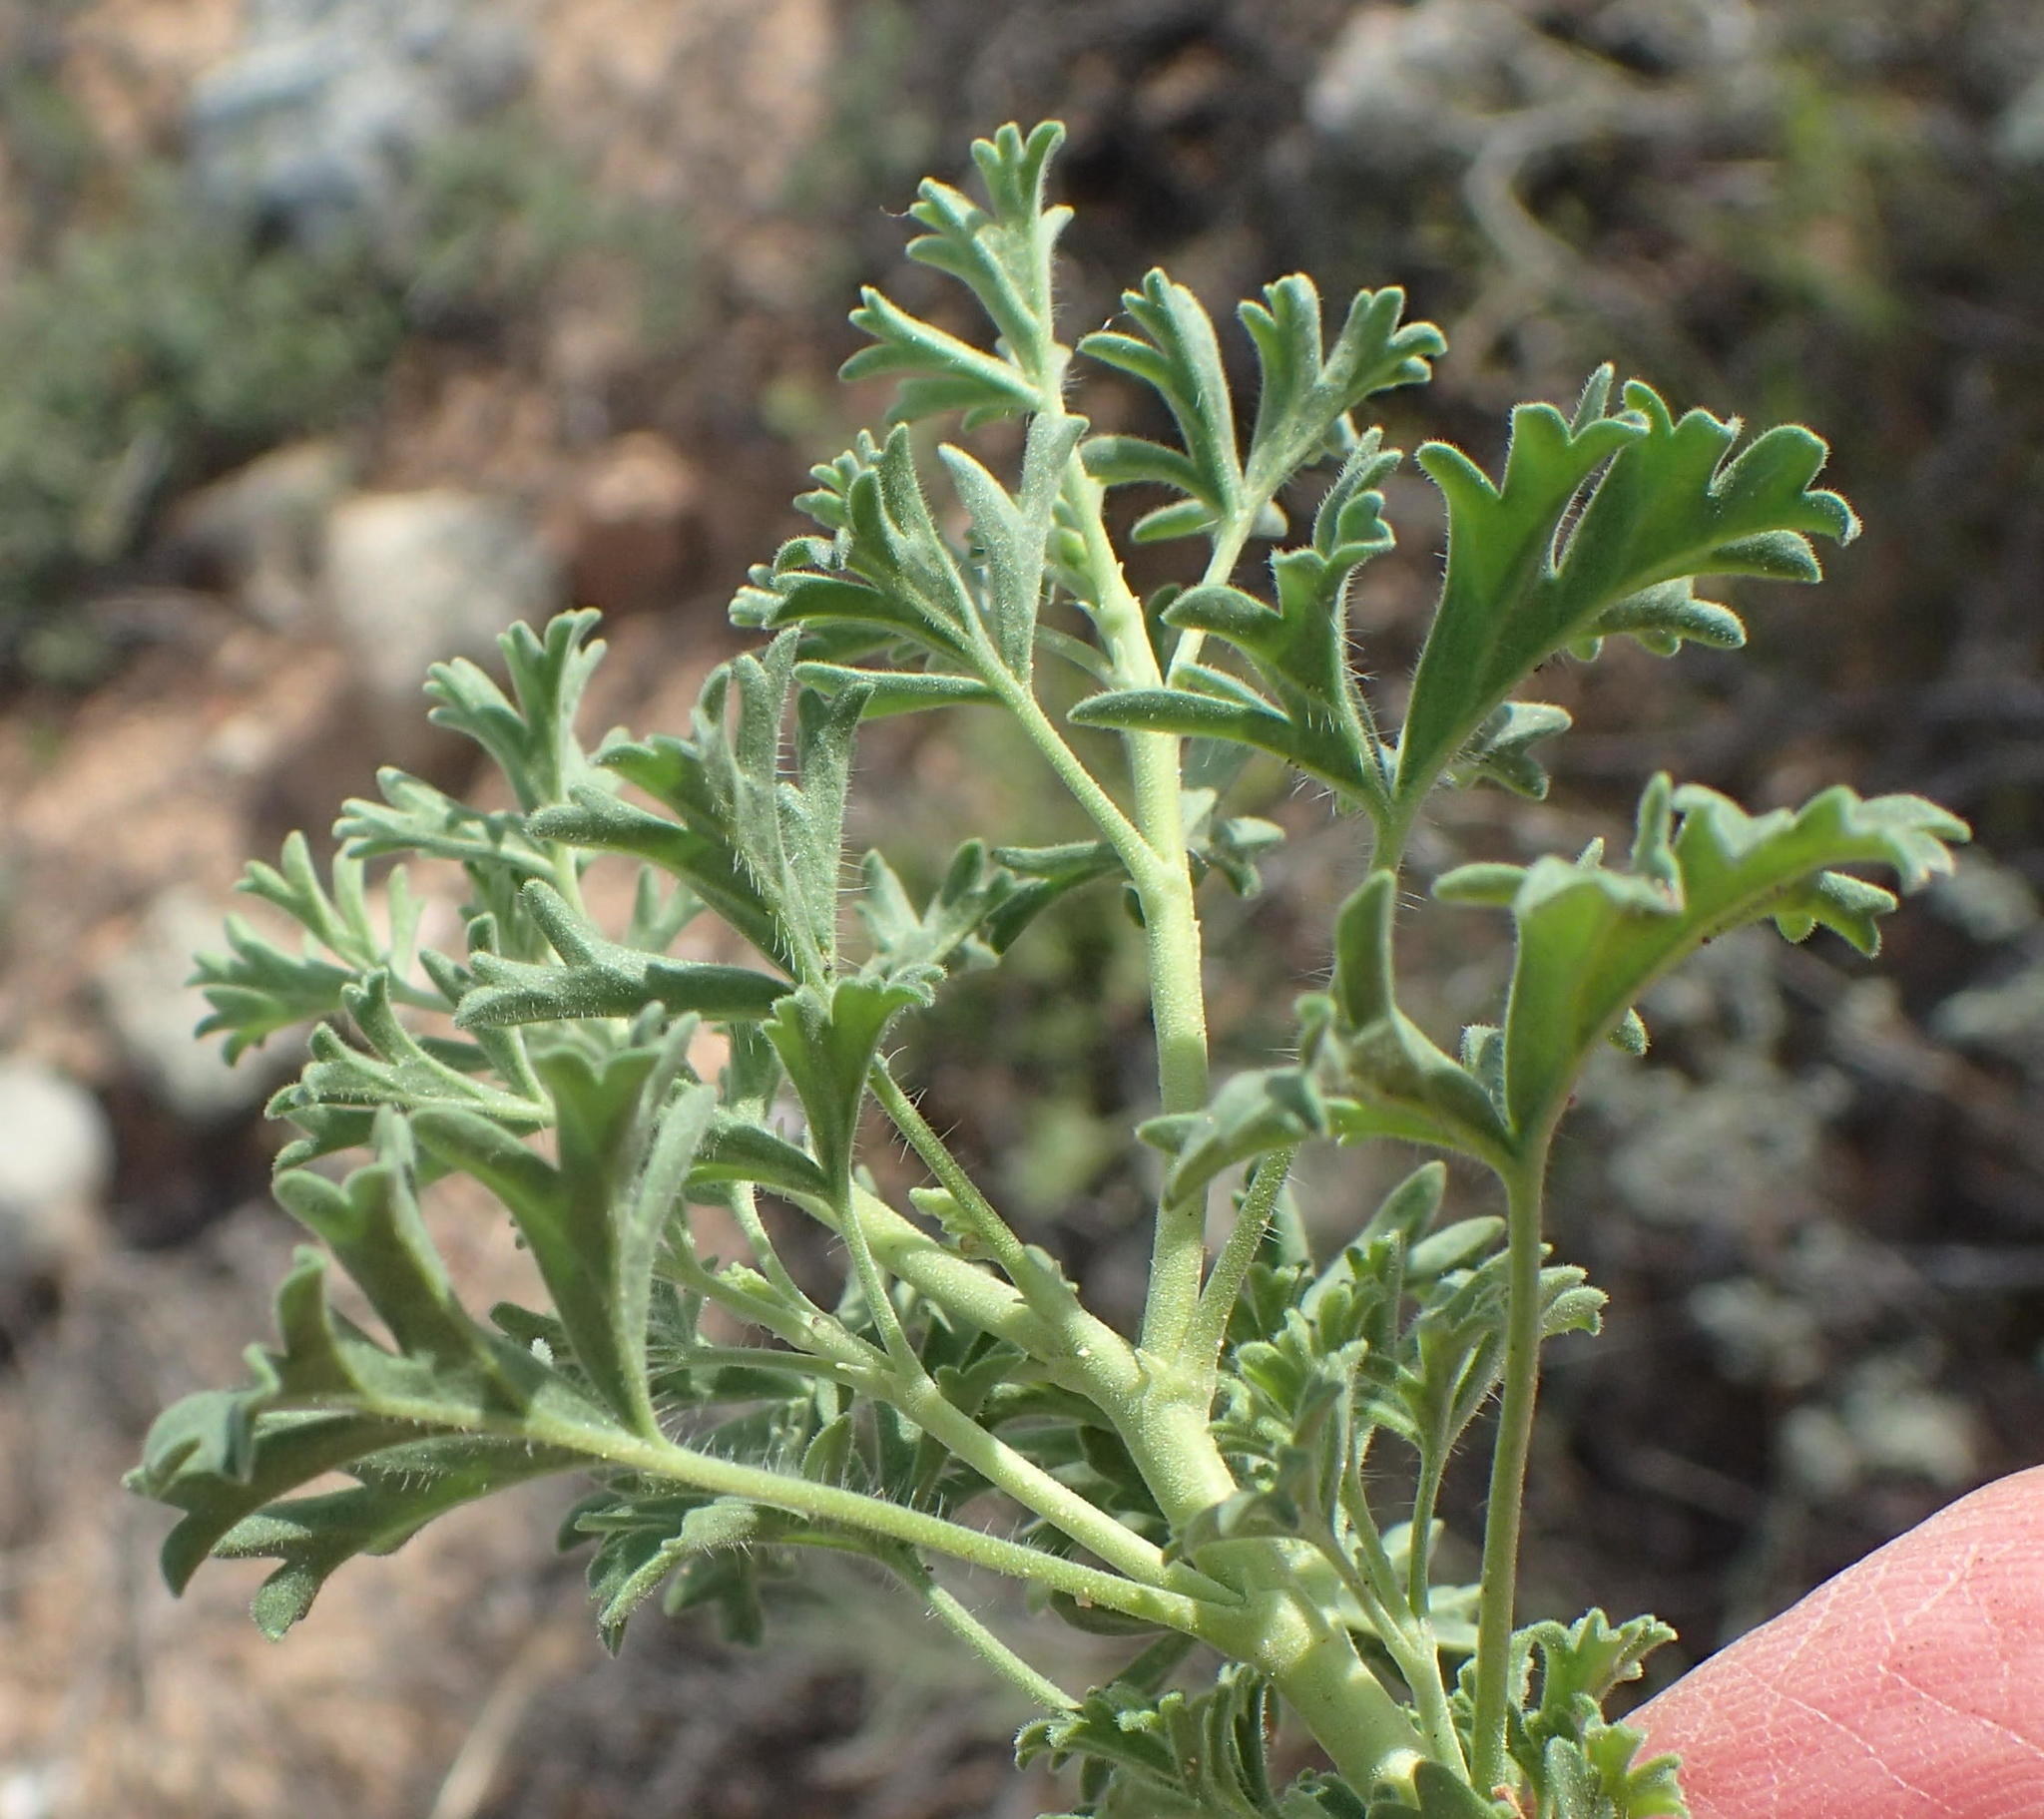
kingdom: Plantae
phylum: Tracheophyta
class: Magnoliopsida
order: Geraniales
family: Geraniaceae
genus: Pelargonium
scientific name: Pelargonium exhibens
